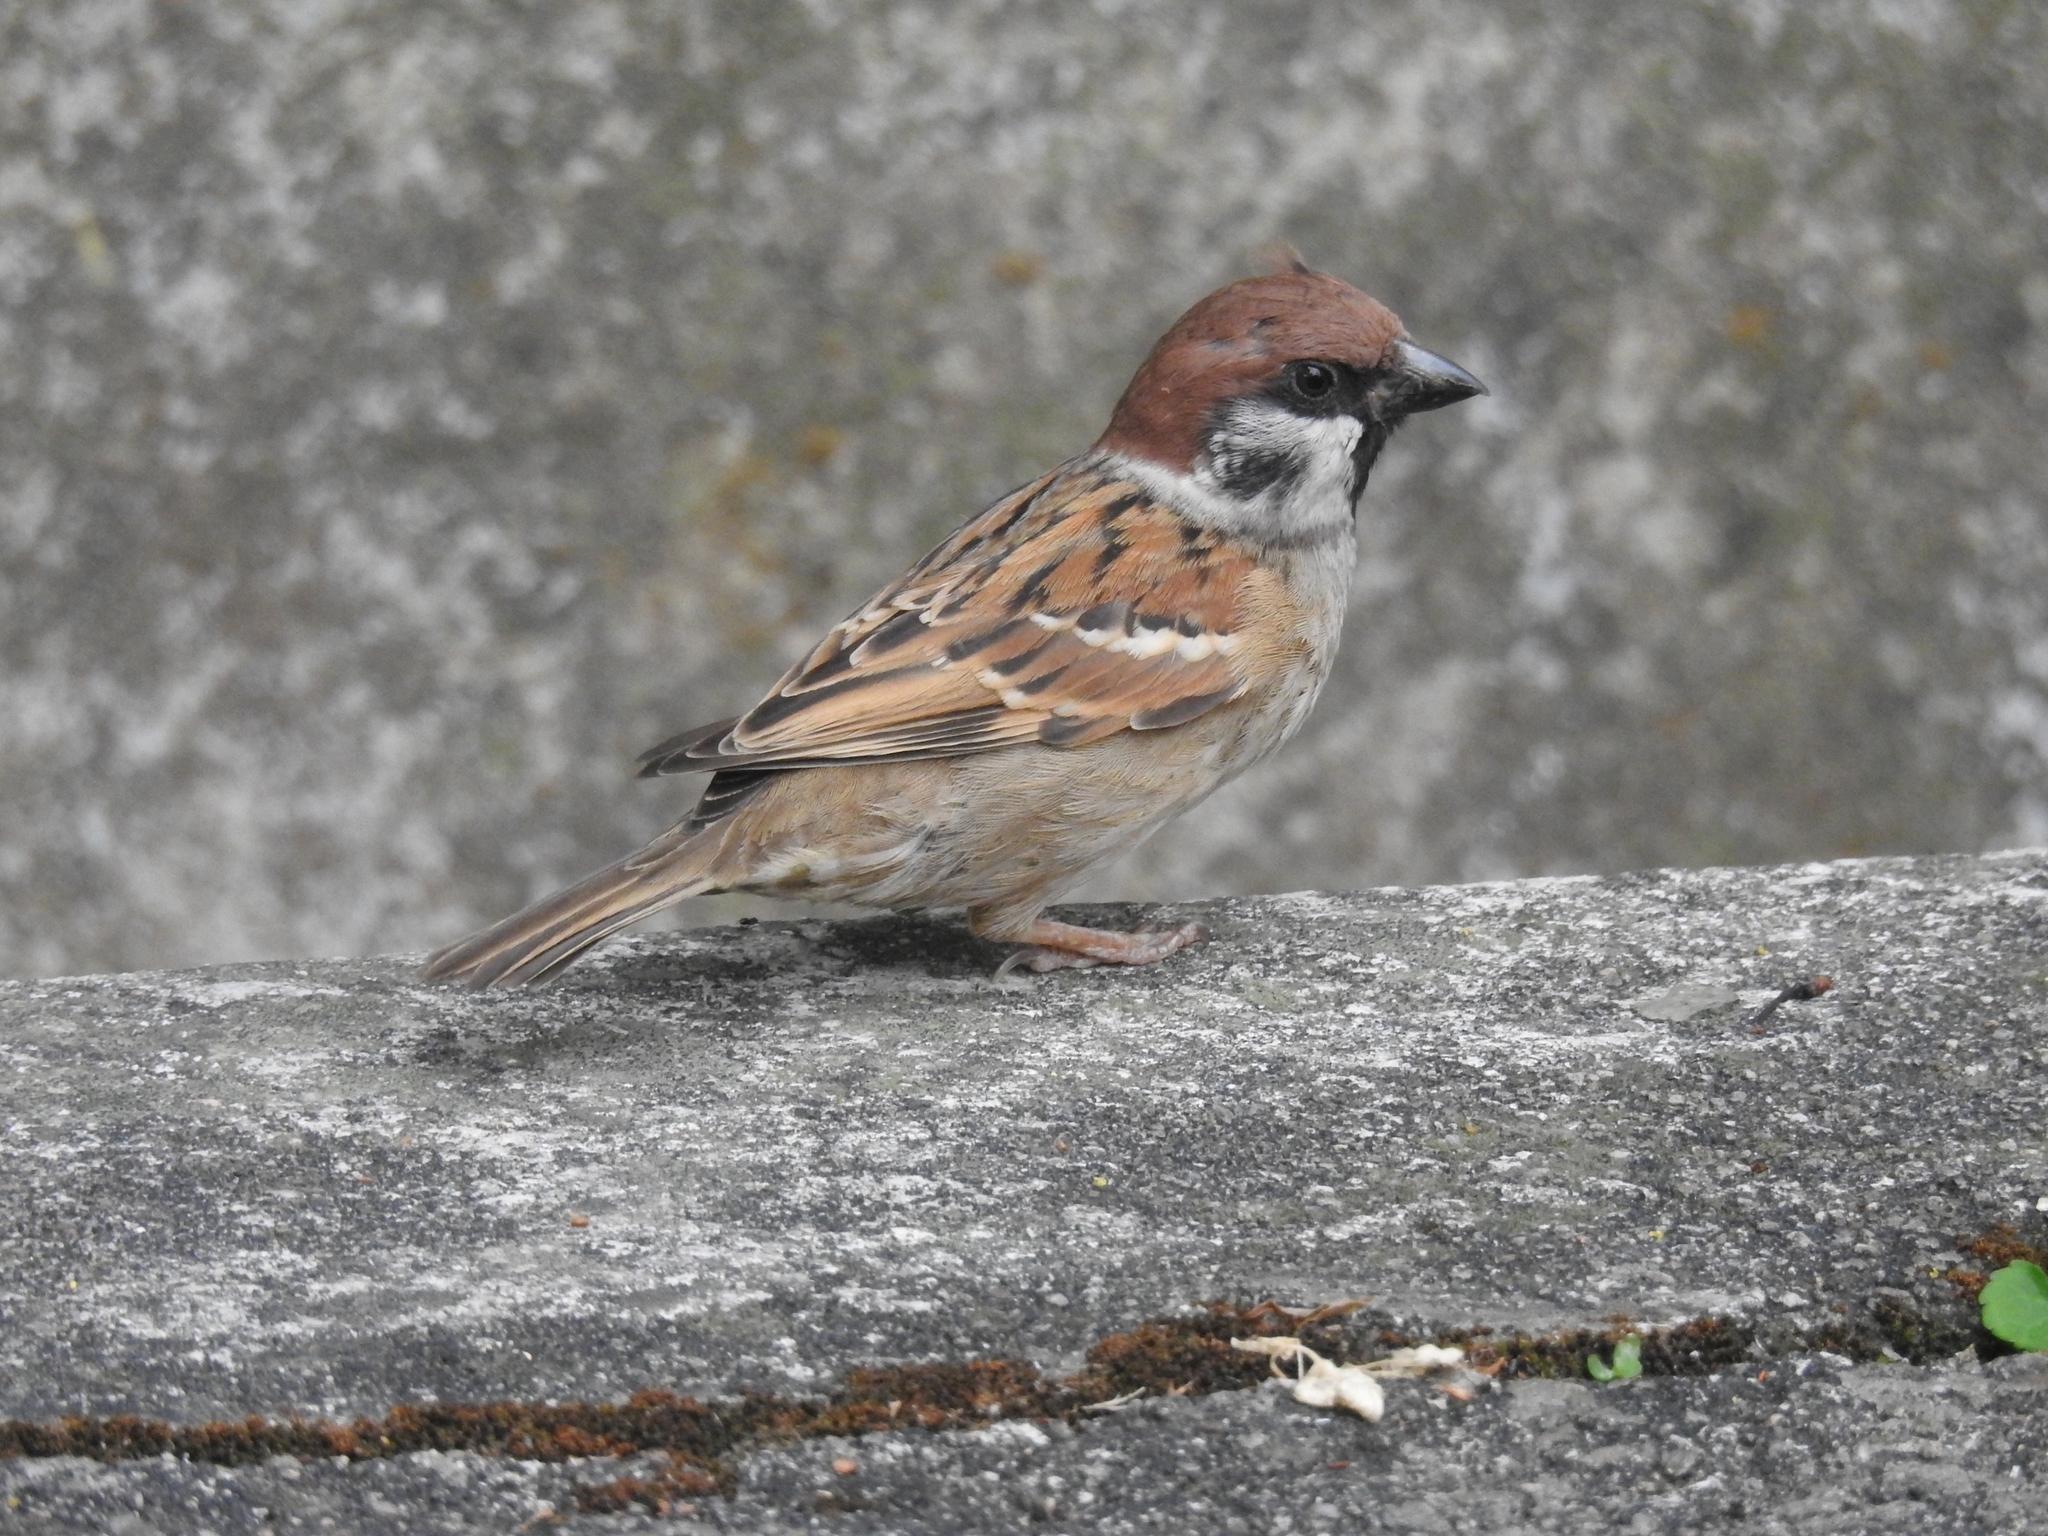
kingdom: Animalia
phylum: Chordata
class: Aves
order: Passeriformes
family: Passeridae
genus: Passer
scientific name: Passer montanus
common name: Eurasian tree sparrow
